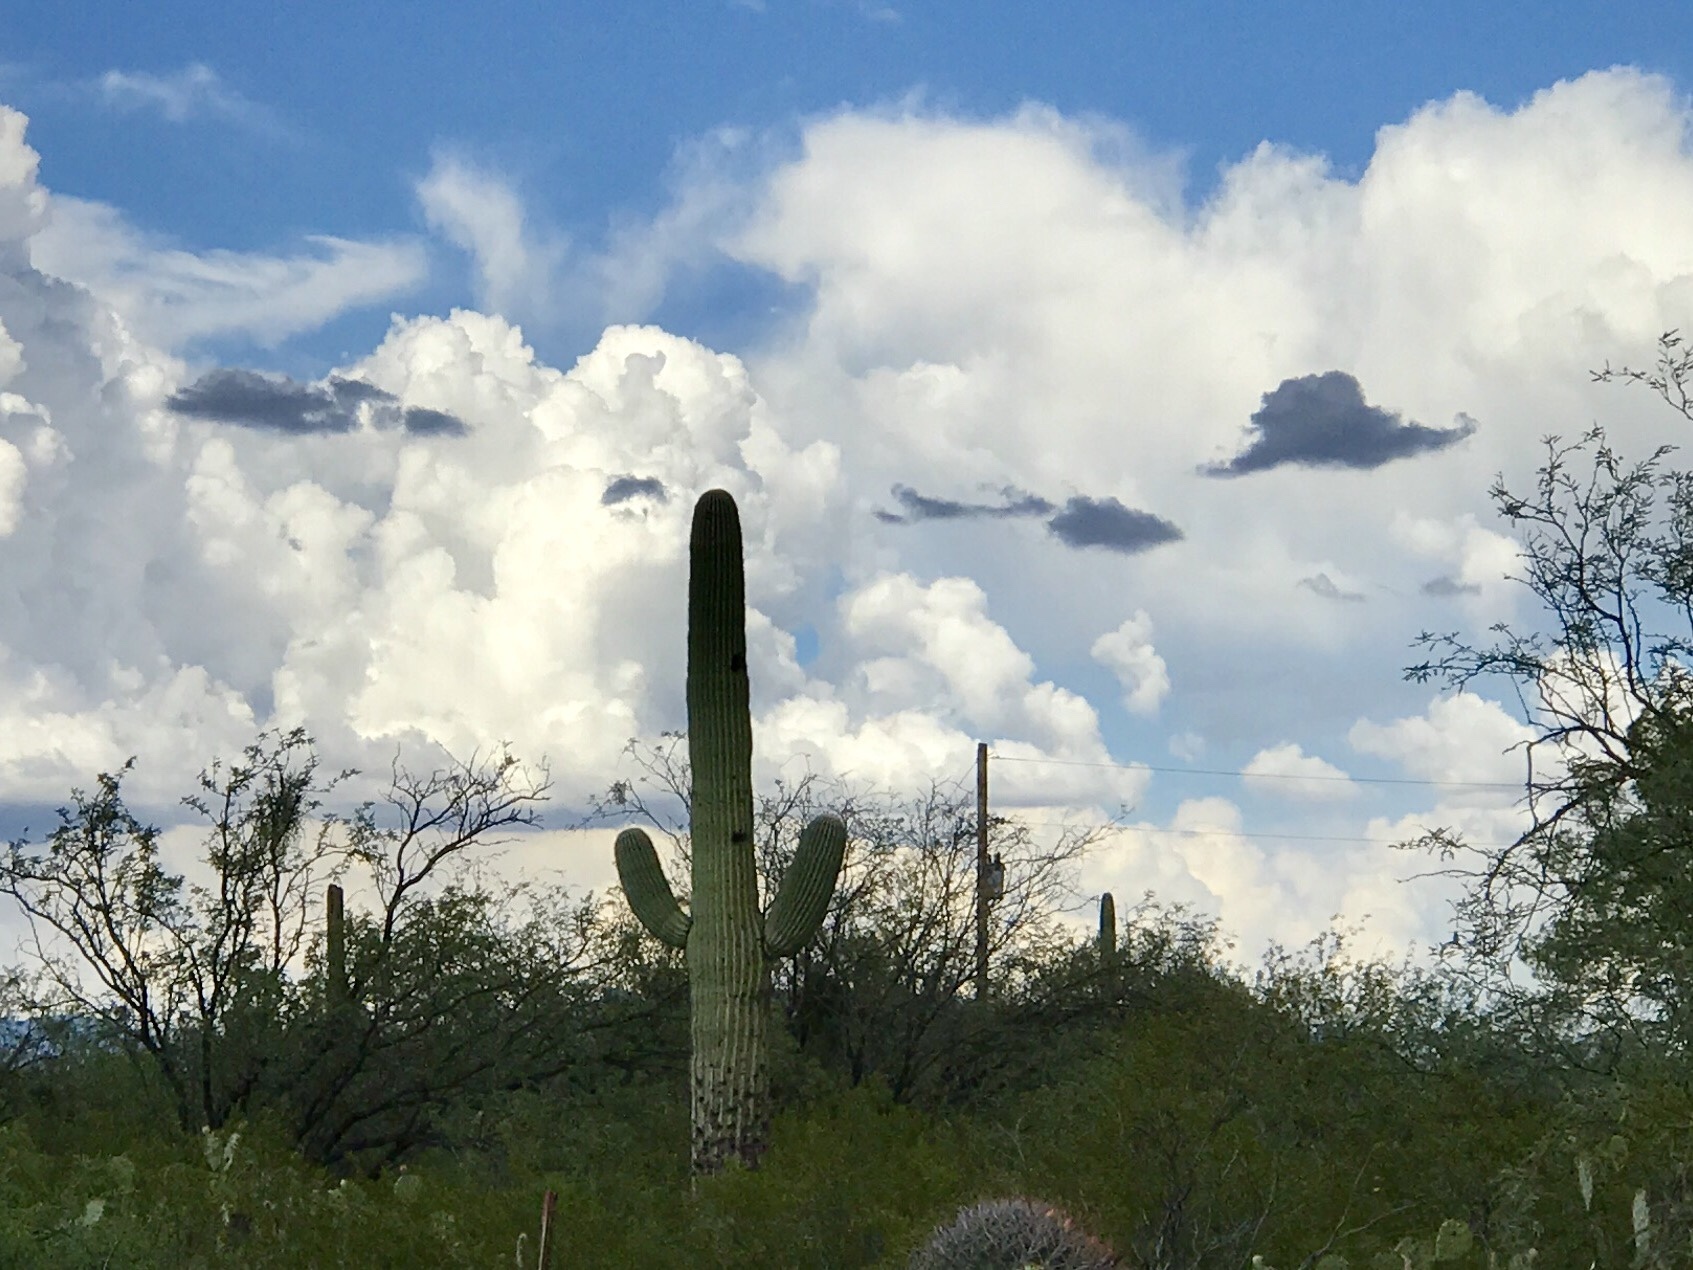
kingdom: Plantae
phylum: Tracheophyta
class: Magnoliopsida
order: Caryophyllales
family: Cactaceae
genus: Carnegiea
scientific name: Carnegiea gigantea
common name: Saguaro
